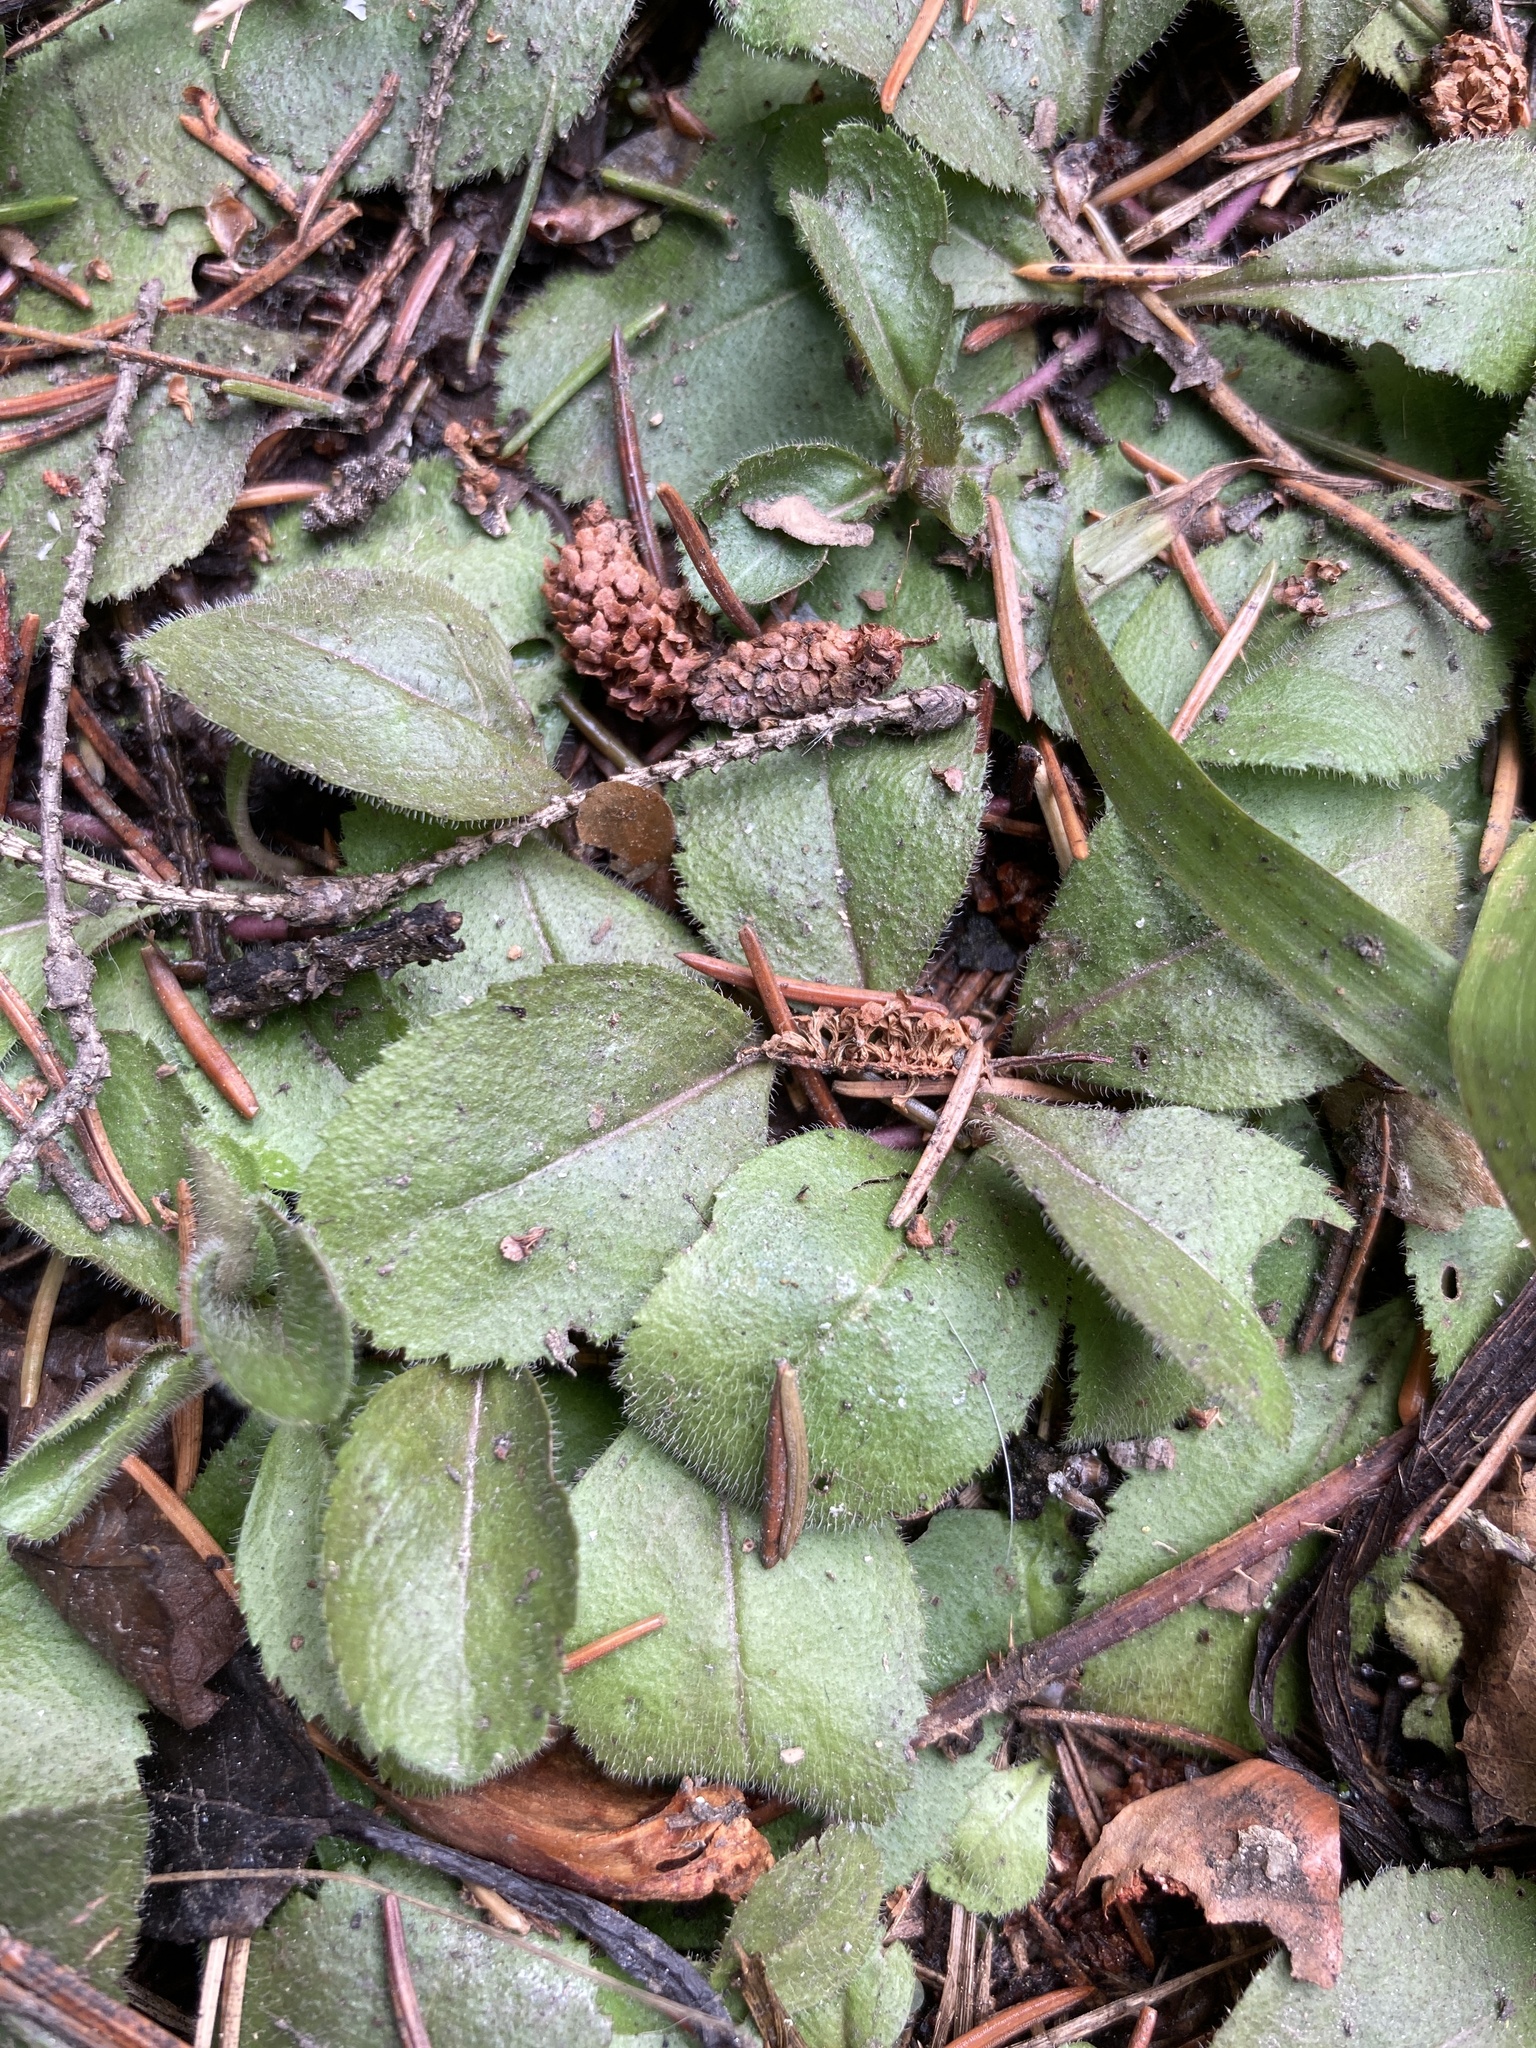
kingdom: Plantae
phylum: Tracheophyta
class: Magnoliopsida
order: Lamiales
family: Plantaginaceae
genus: Veronica
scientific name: Veronica officinalis
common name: Common speedwell
